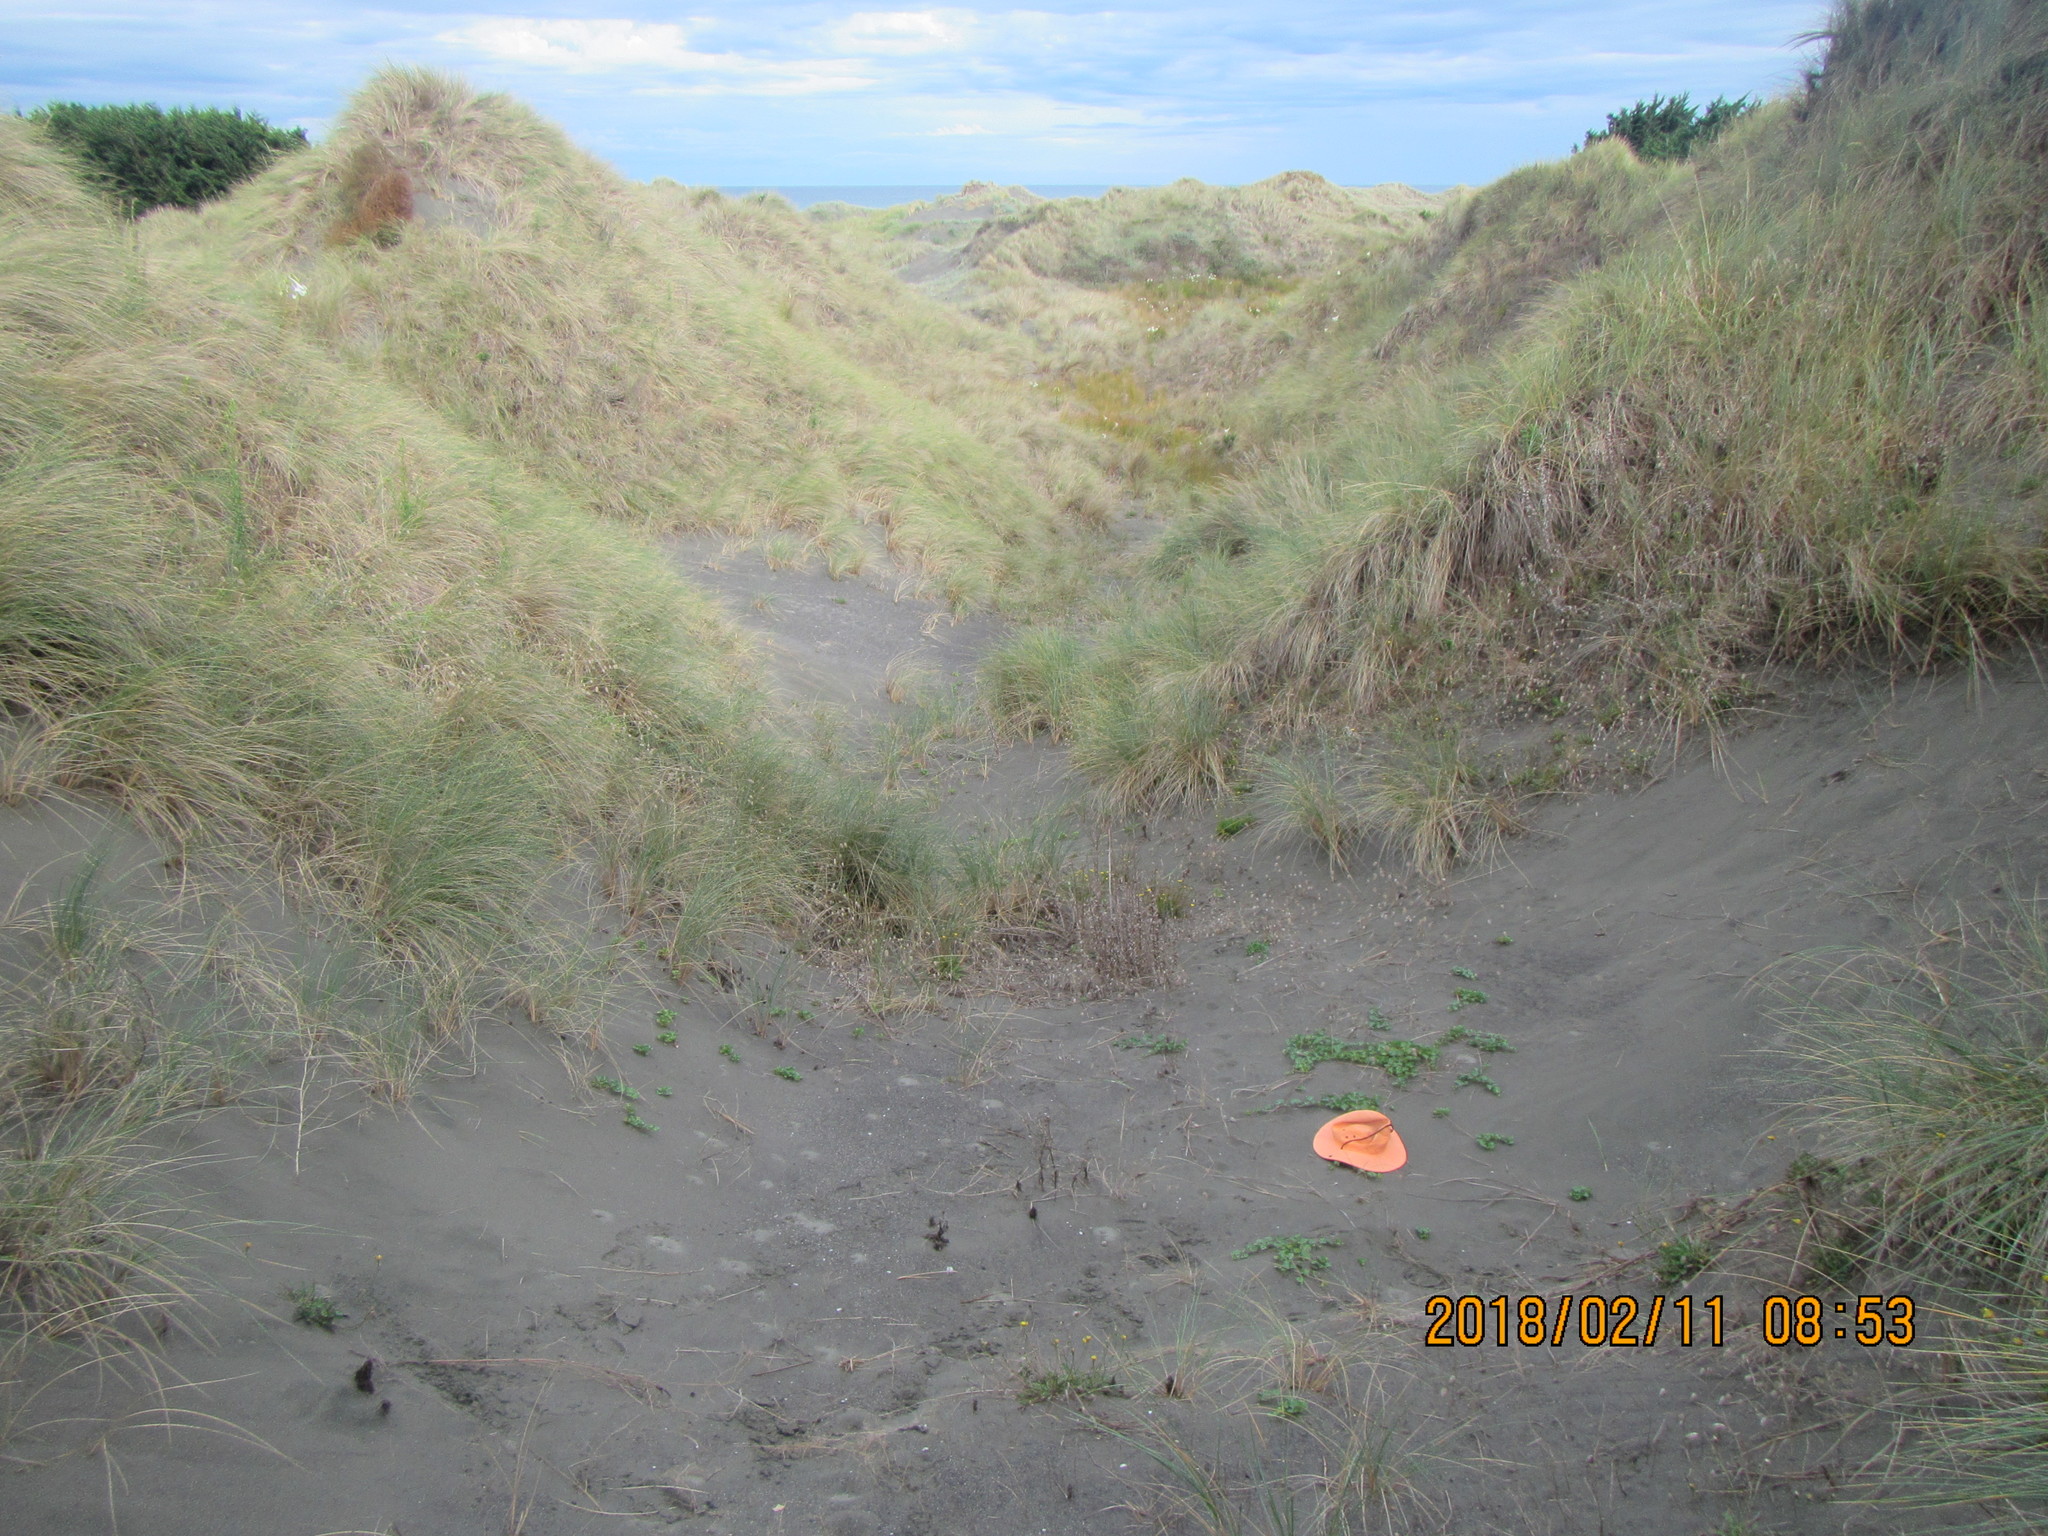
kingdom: Plantae
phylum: Tracheophyta
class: Magnoliopsida
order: Solanales
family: Convolvulaceae
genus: Calystegia
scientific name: Calystegia soldanella
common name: Sea bindweed
